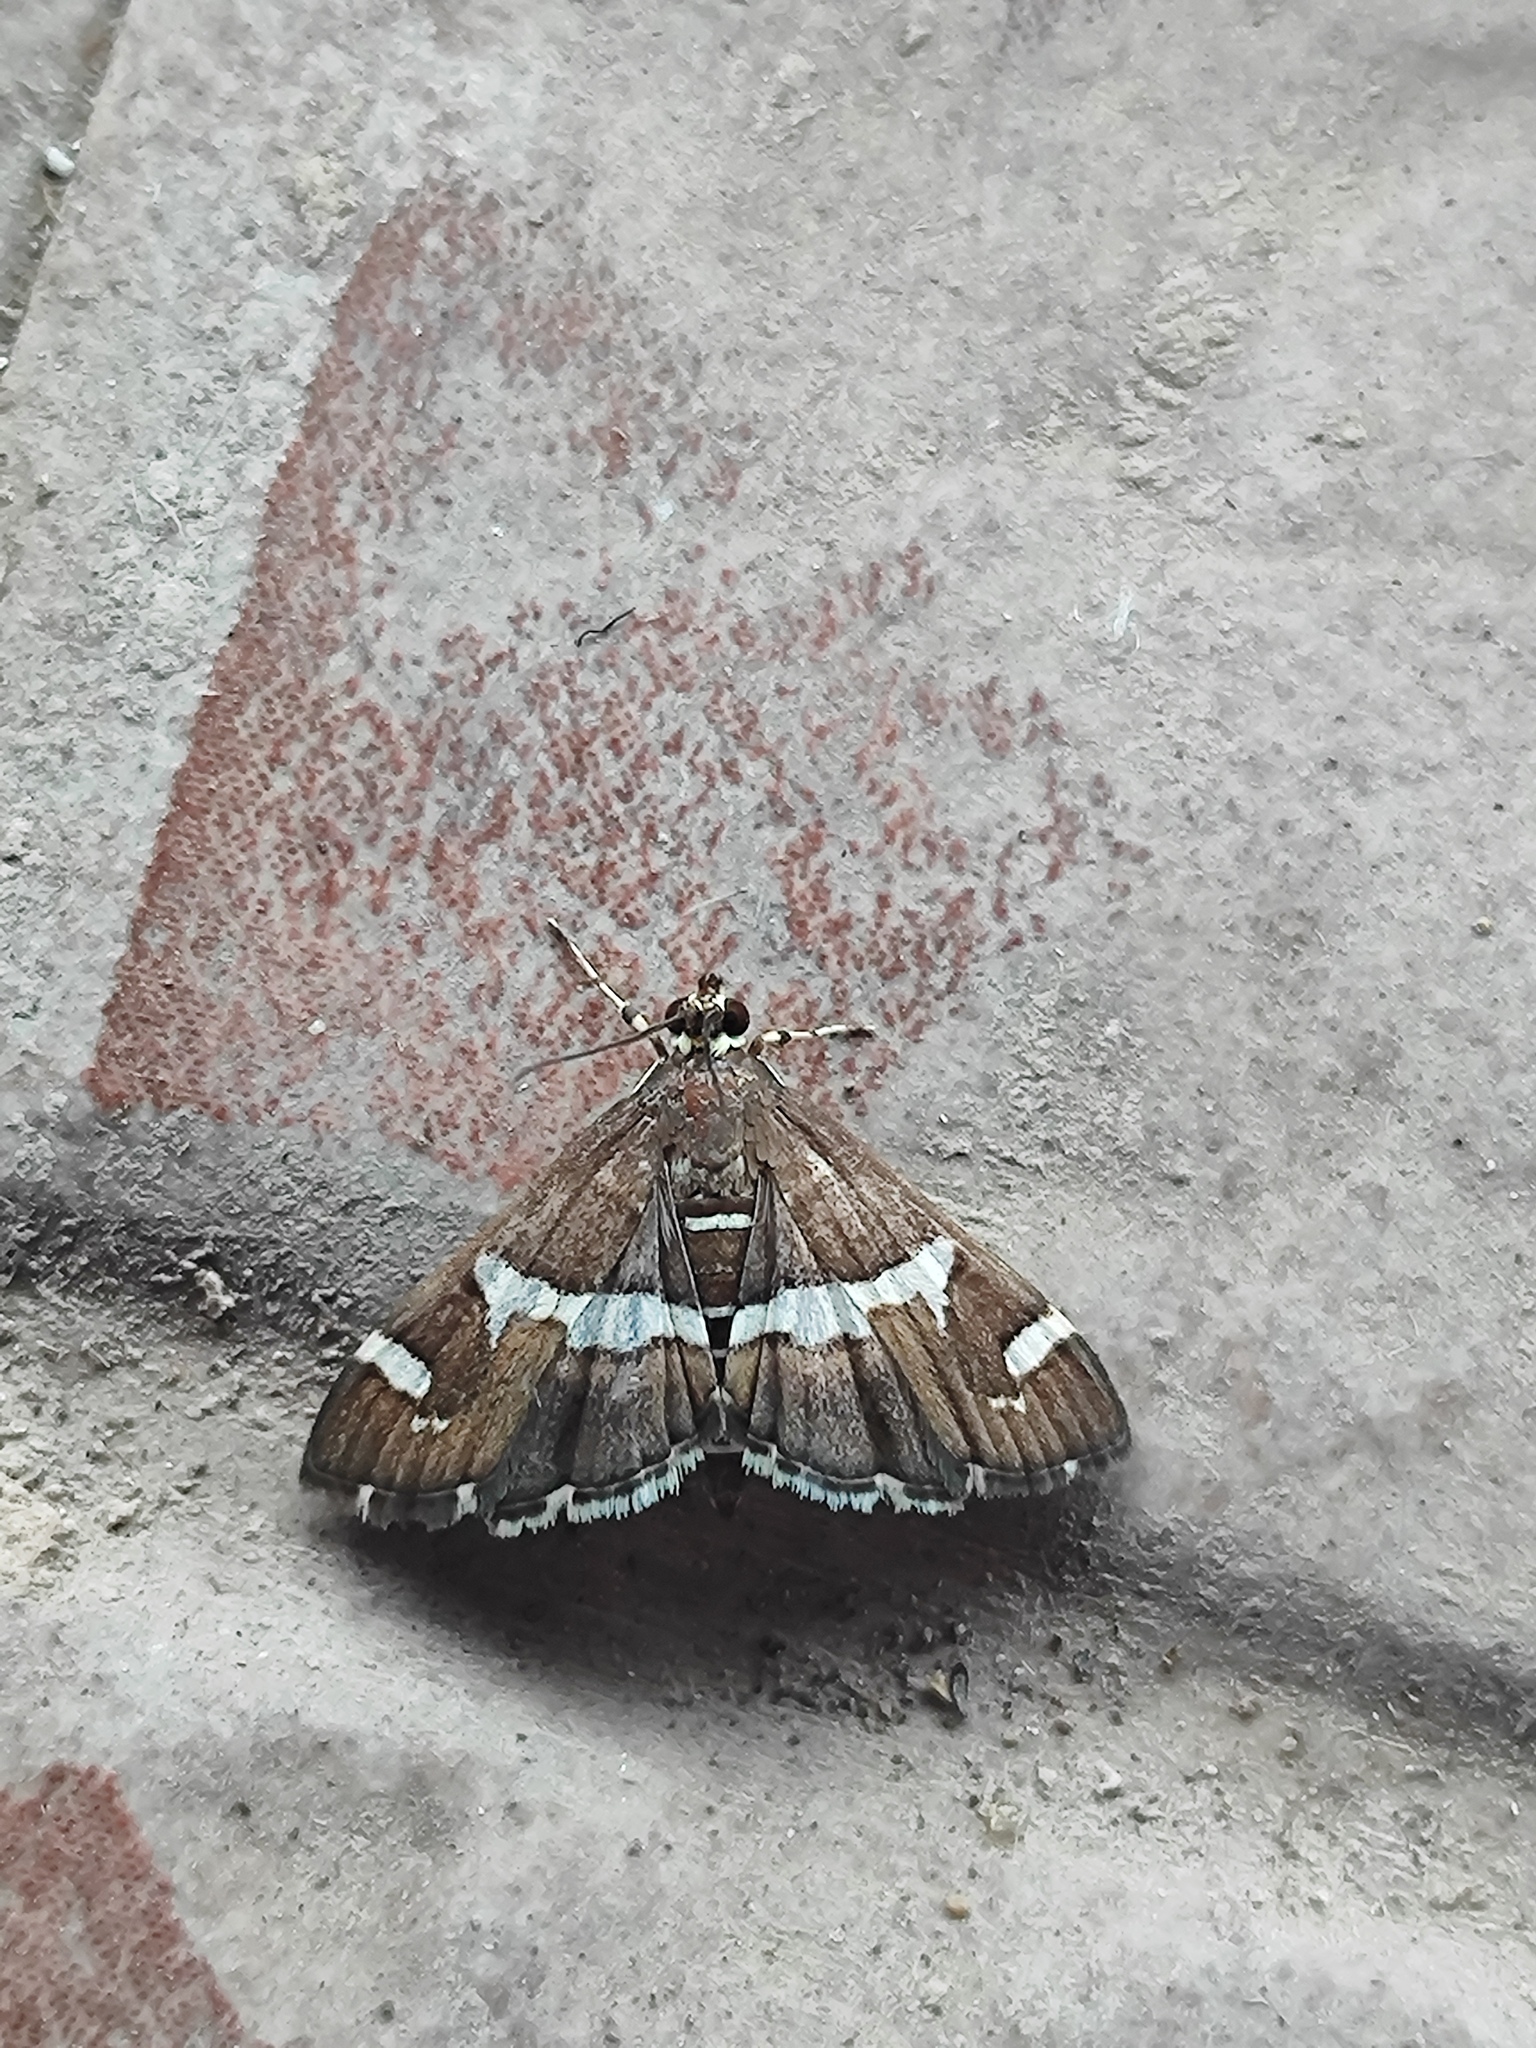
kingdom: Animalia
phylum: Arthropoda
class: Insecta
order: Lepidoptera
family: Crambidae
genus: Spoladea
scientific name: Spoladea recurvalis
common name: Beet webworm moth
